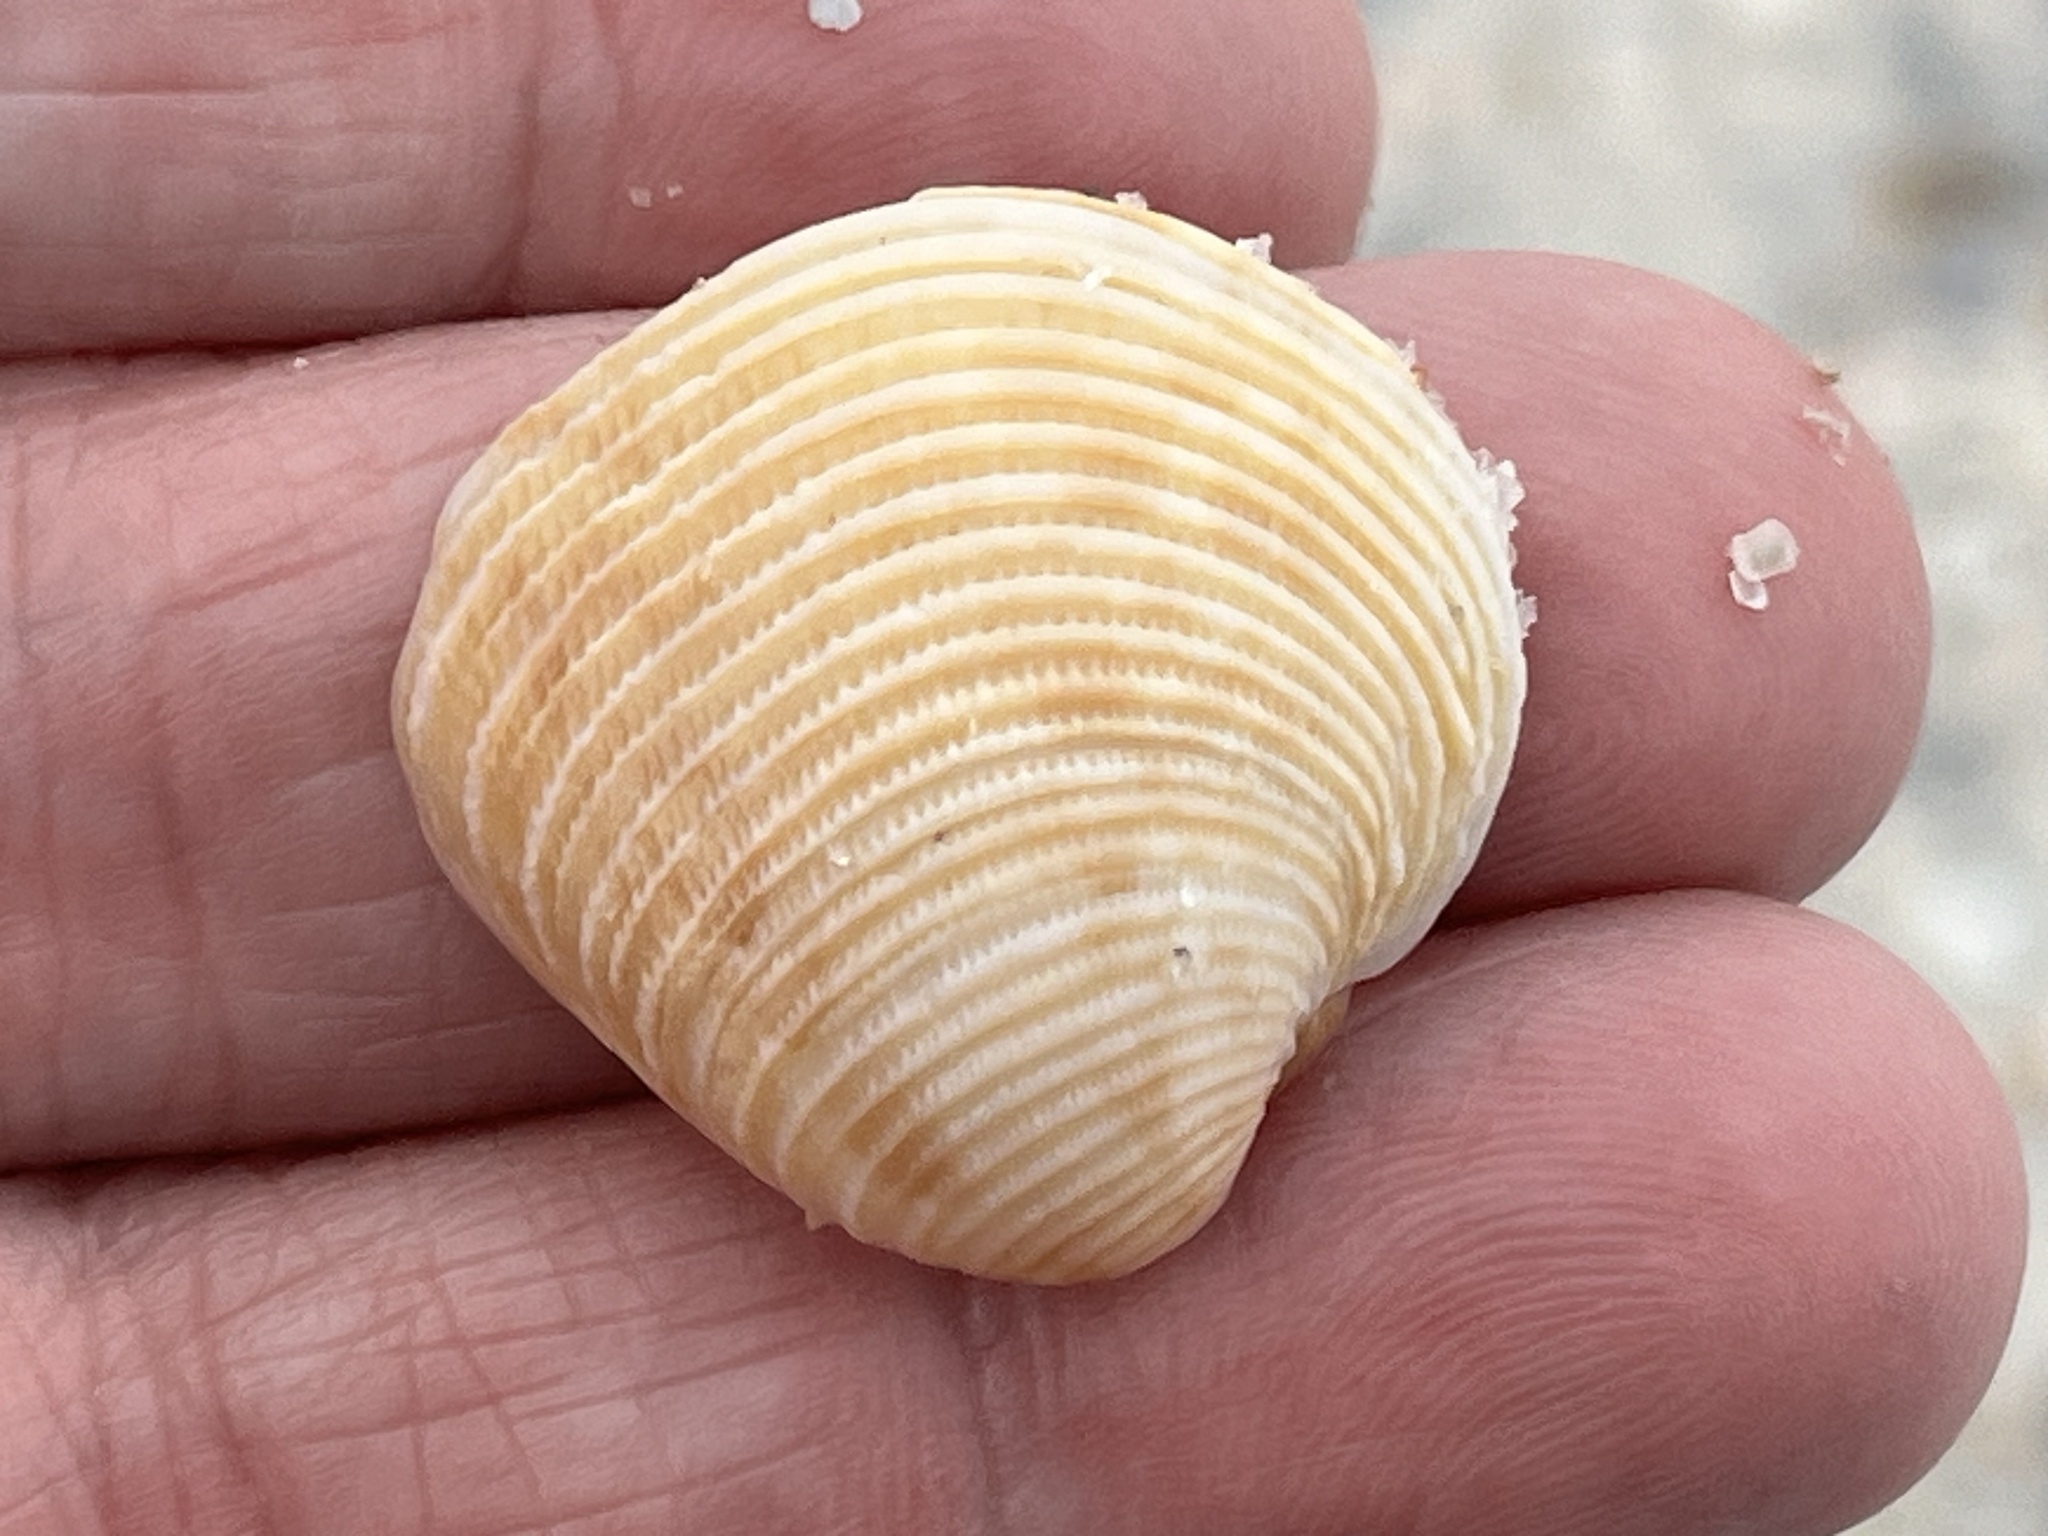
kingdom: Animalia
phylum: Mollusca
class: Bivalvia
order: Venerida
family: Veneridae
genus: Chionopsis
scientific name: Chionopsis intapurpurea
